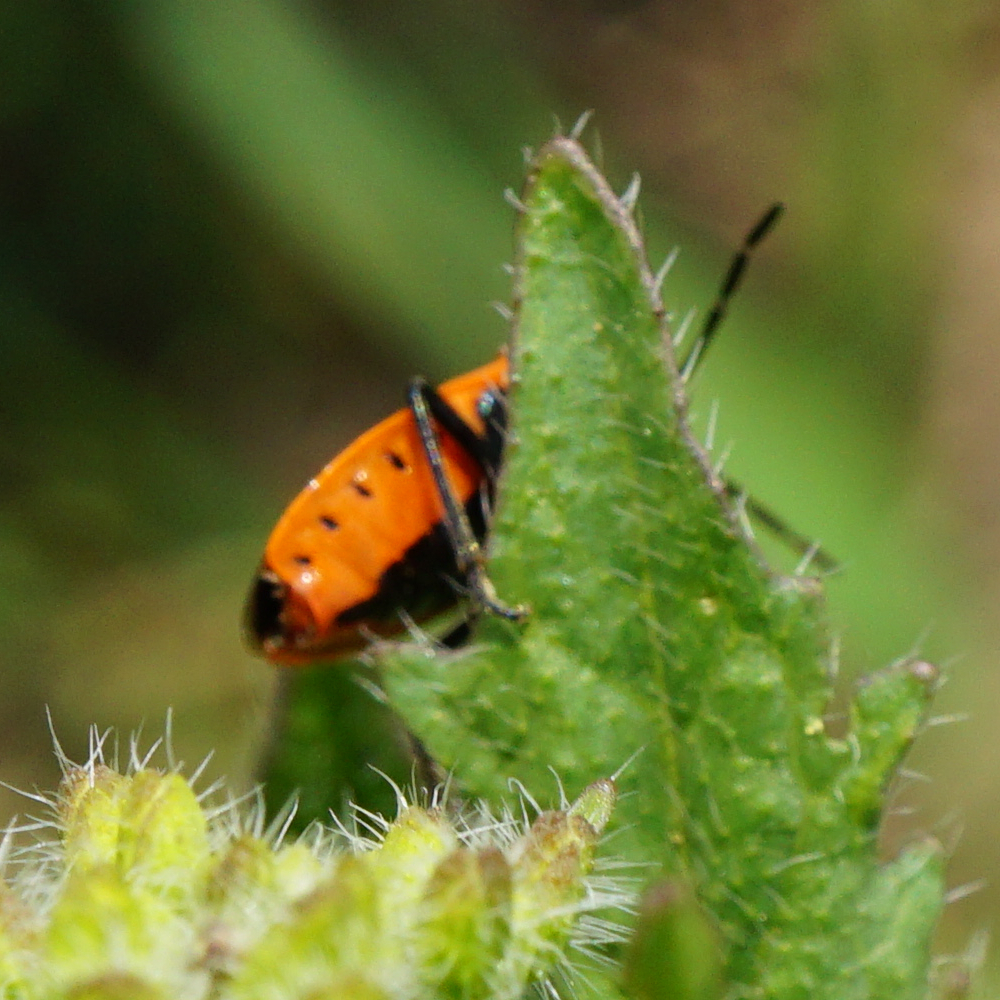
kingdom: Animalia
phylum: Arthropoda
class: Insecta
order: Hemiptera
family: Pentatomidae
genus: Eurydema
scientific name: Eurydema ornata
